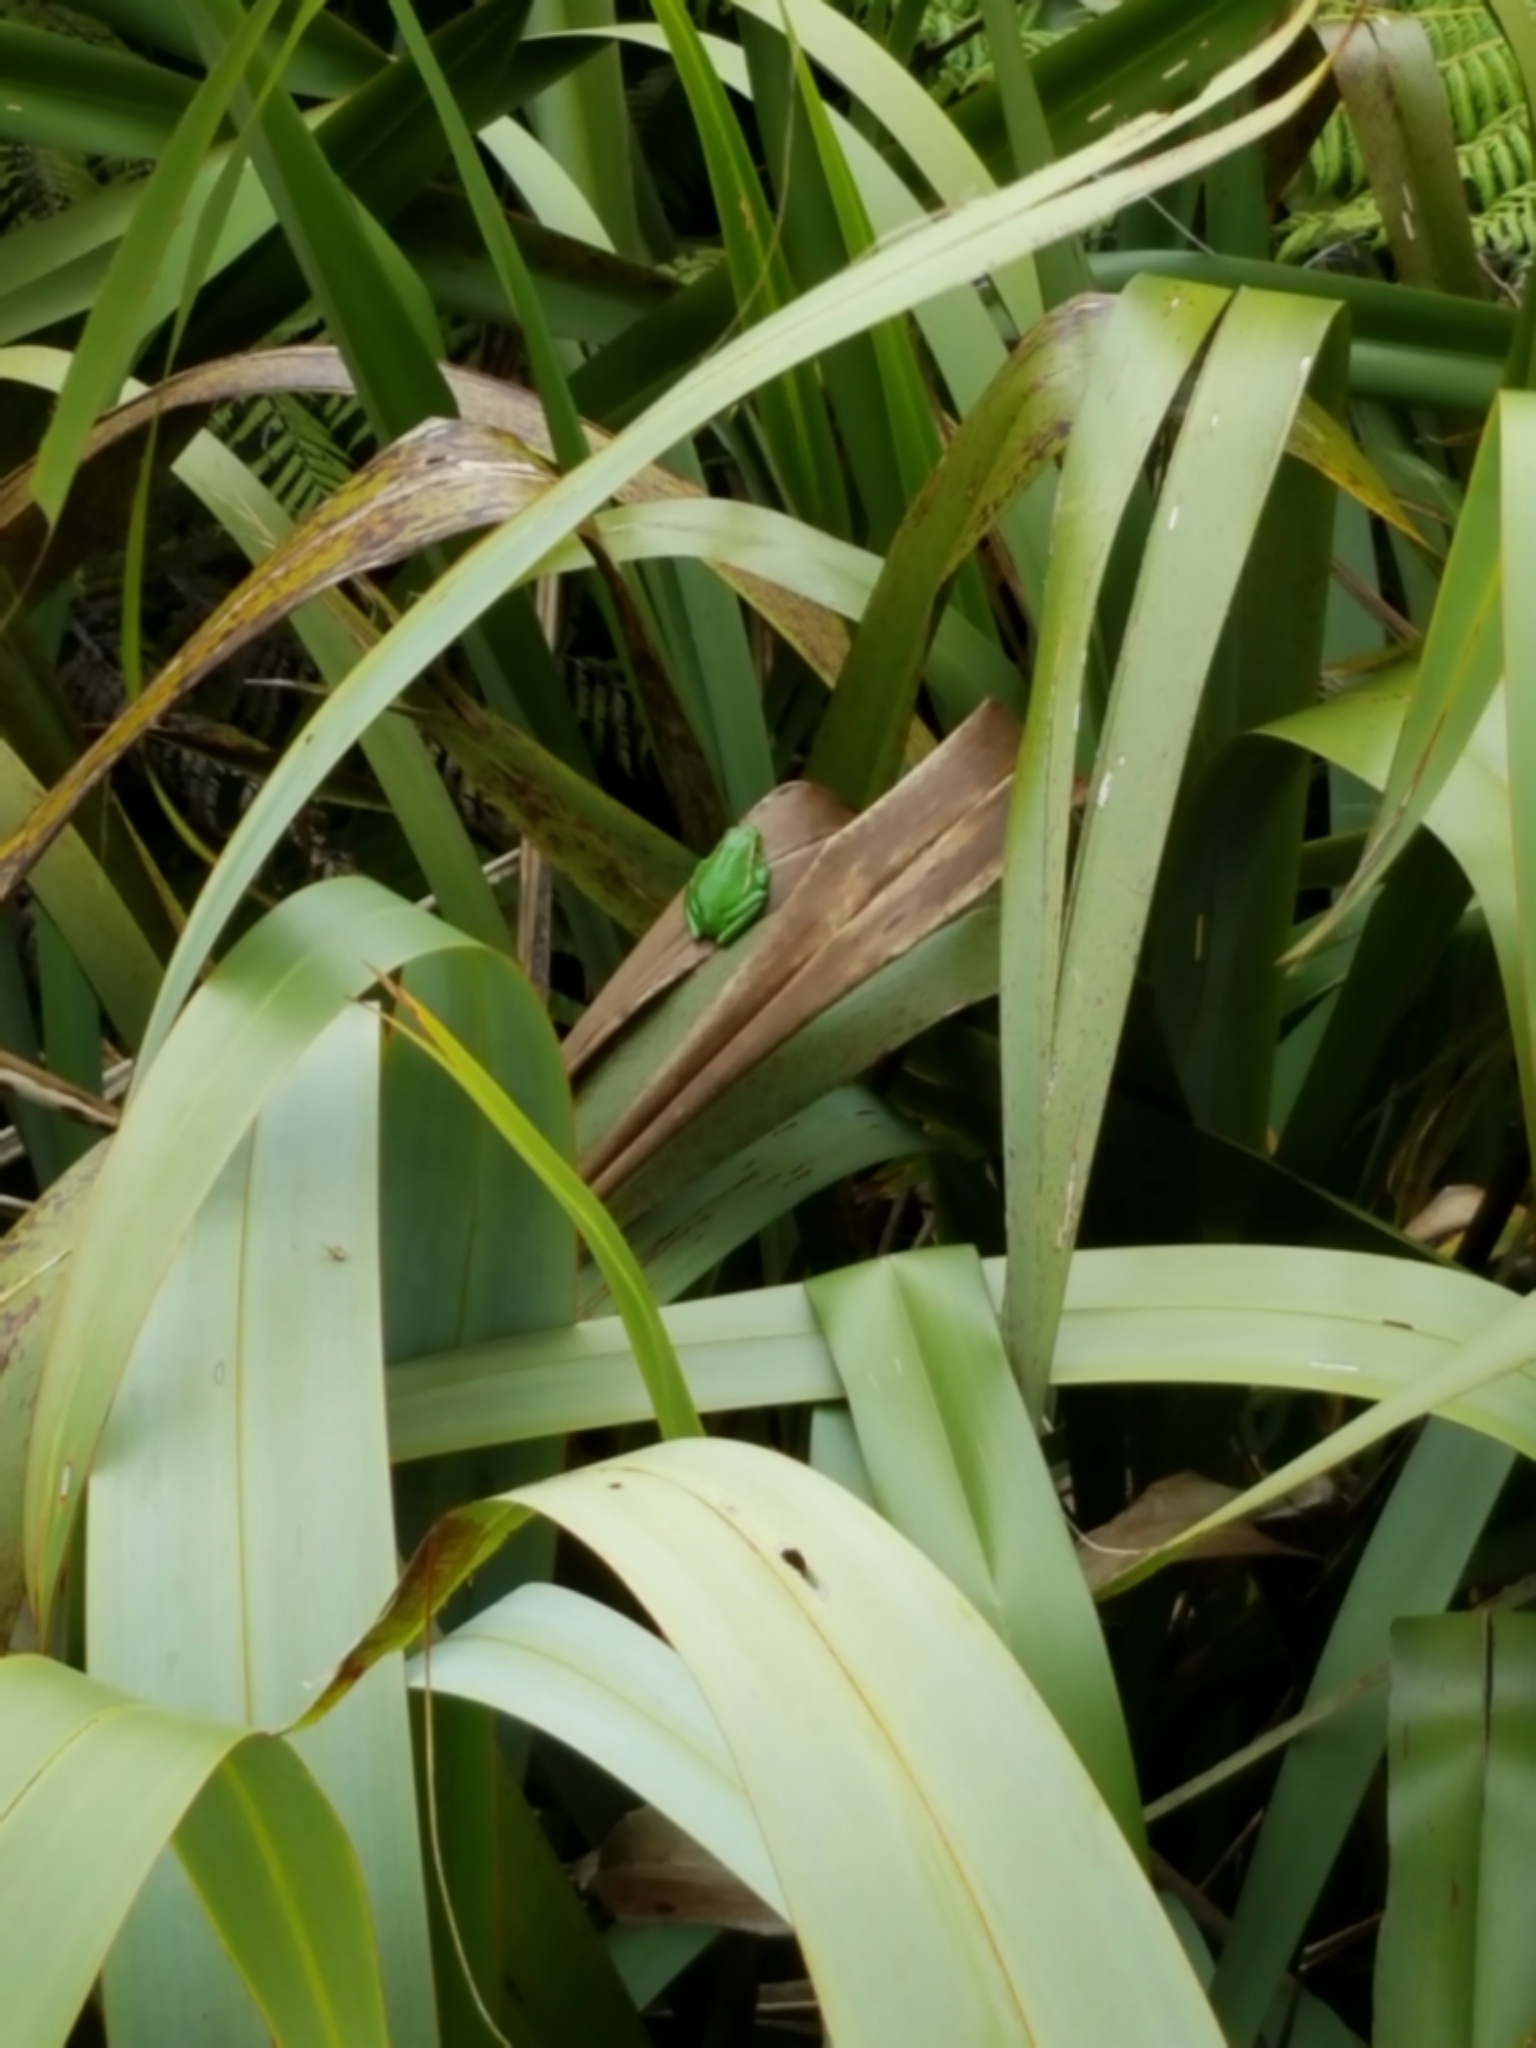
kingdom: Animalia
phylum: Chordata
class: Amphibia
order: Anura
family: Pelodryadidae
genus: Ranoidea
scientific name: Ranoidea aurea
